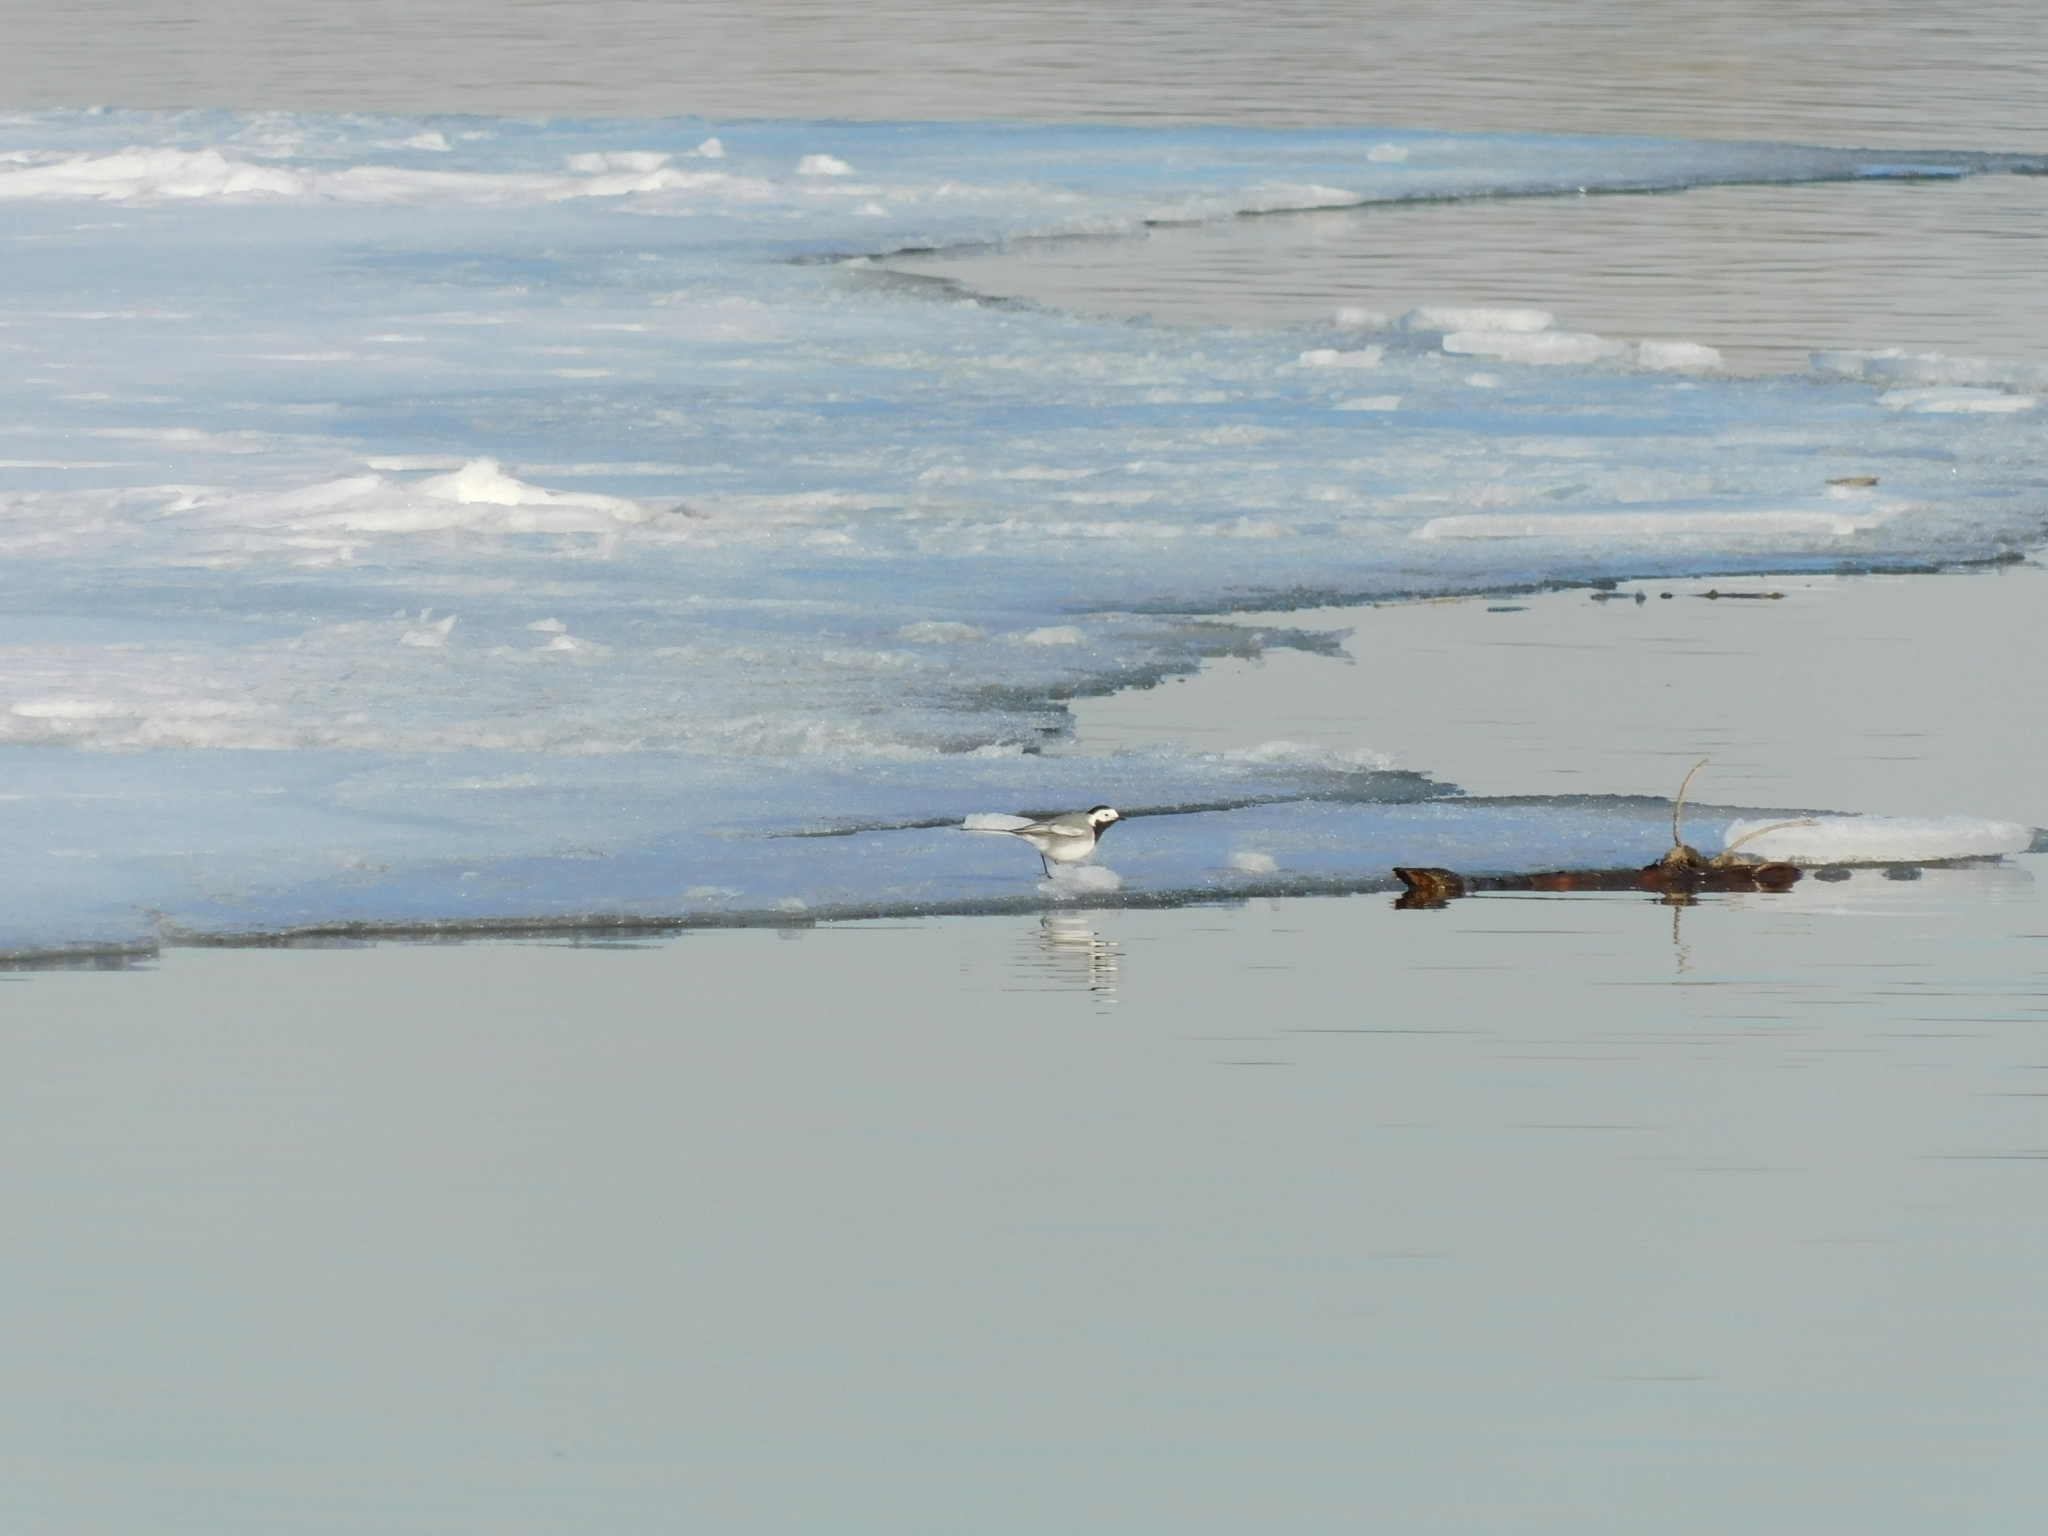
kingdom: Animalia
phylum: Chordata
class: Aves
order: Passeriformes
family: Motacillidae
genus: Motacilla
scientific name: Motacilla alba
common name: White wagtail
